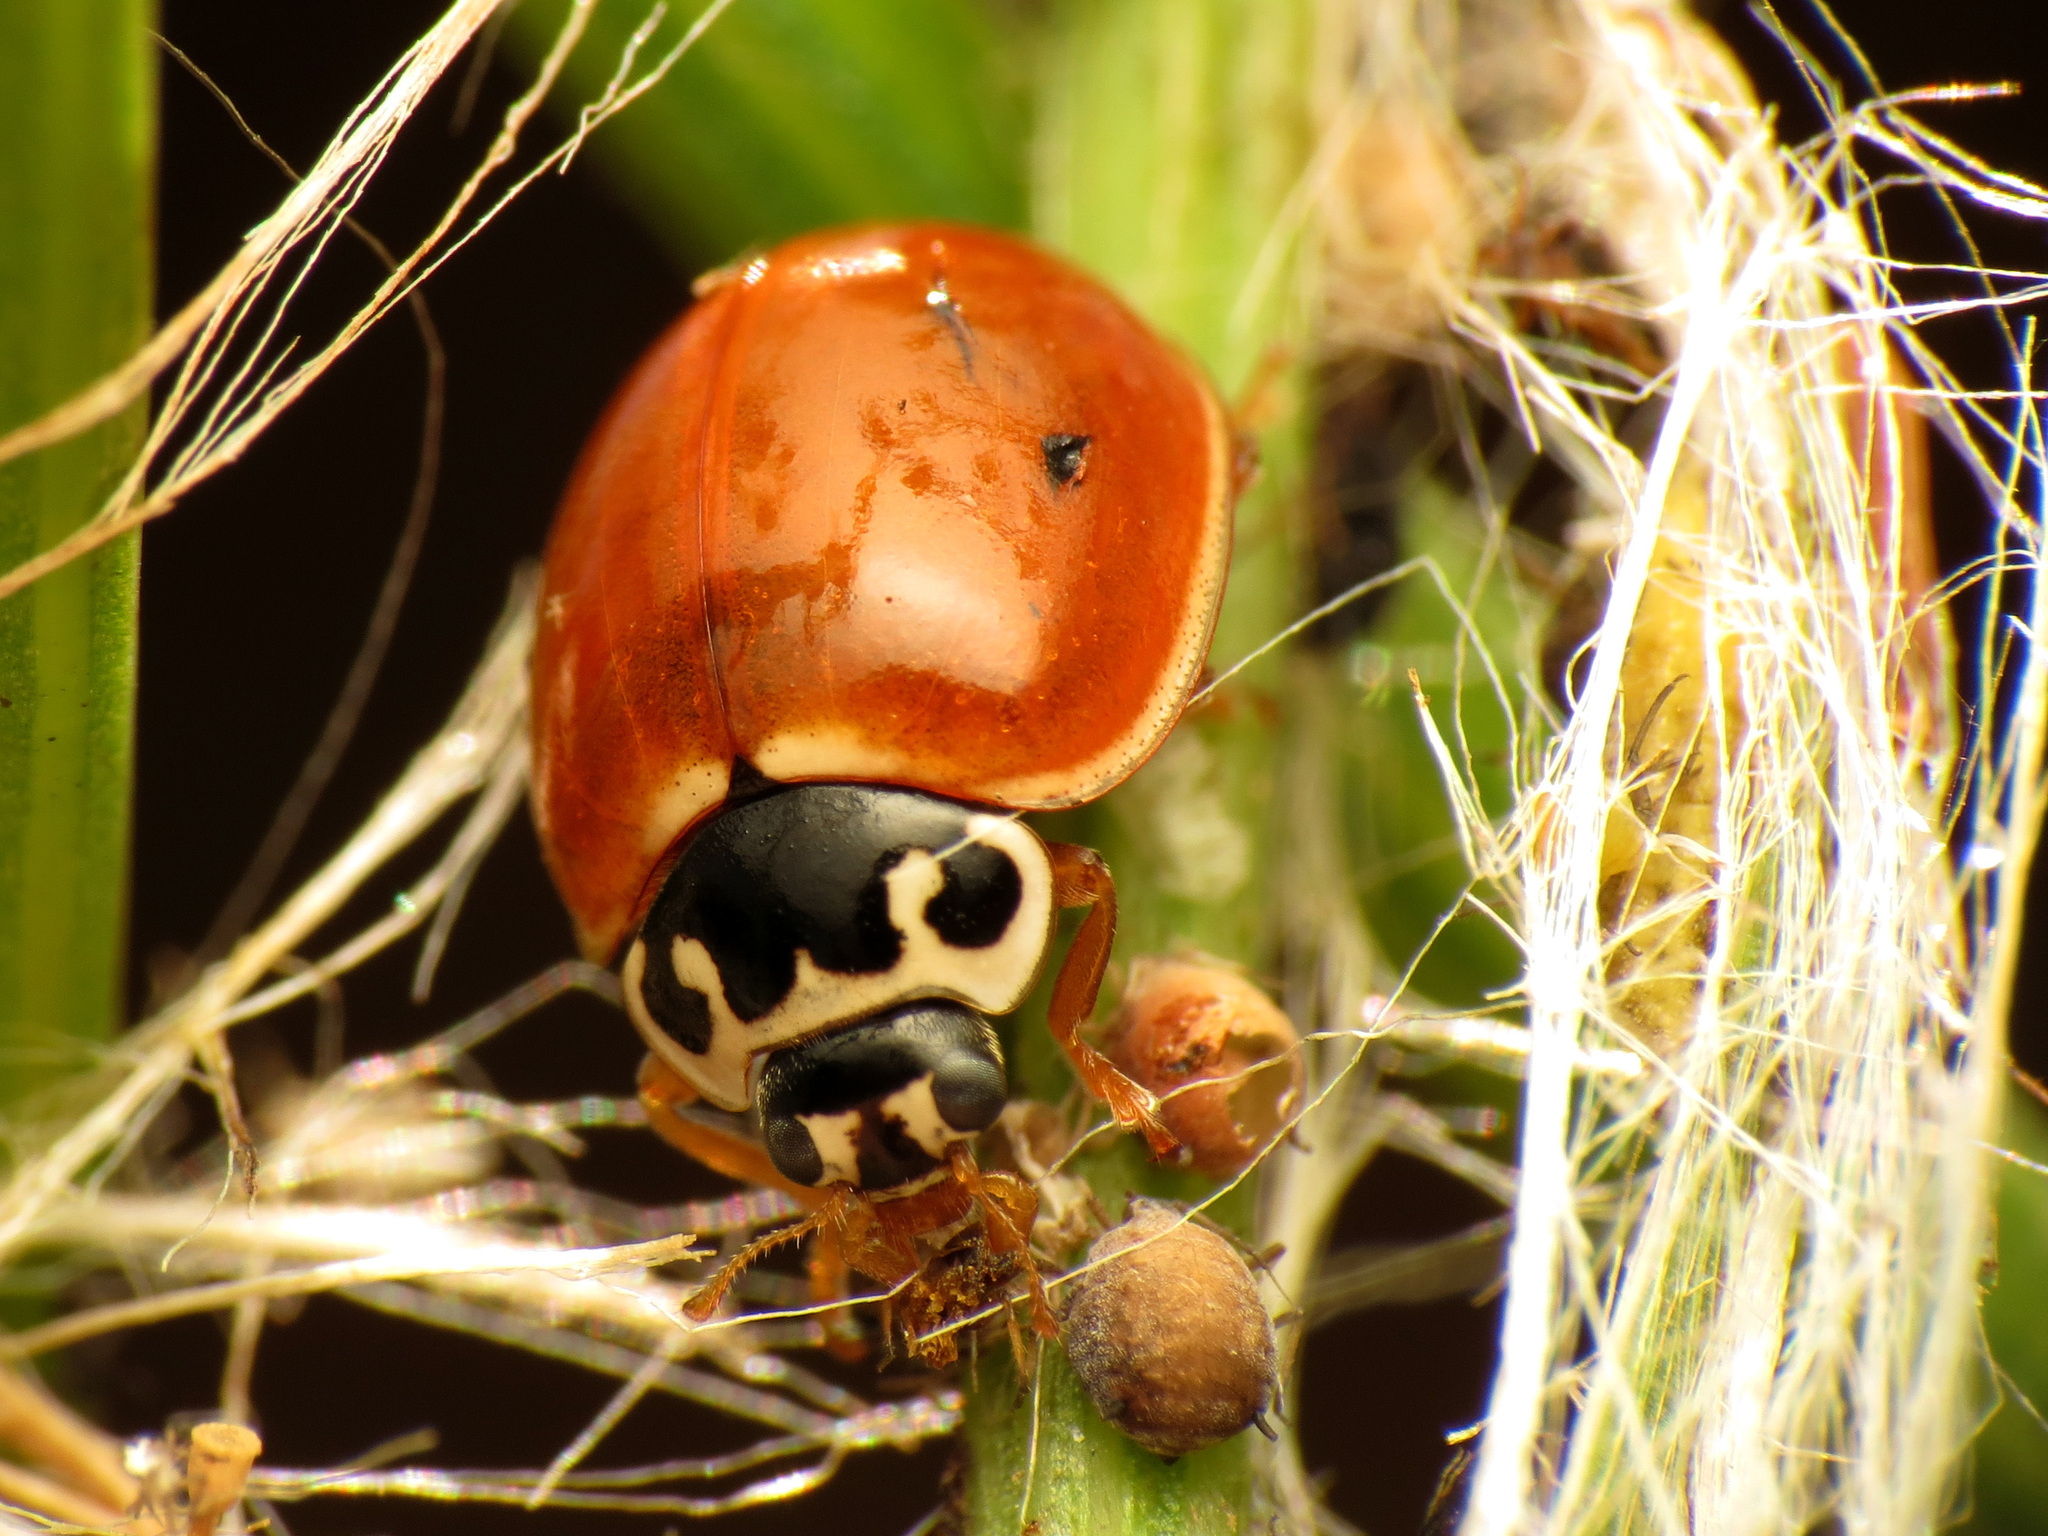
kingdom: Animalia
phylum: Arthropoda
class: Insecta
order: Coleoptera
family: Coccinellidae
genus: Cycloneda
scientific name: Cycloneda munda
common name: Polished lady beetle
